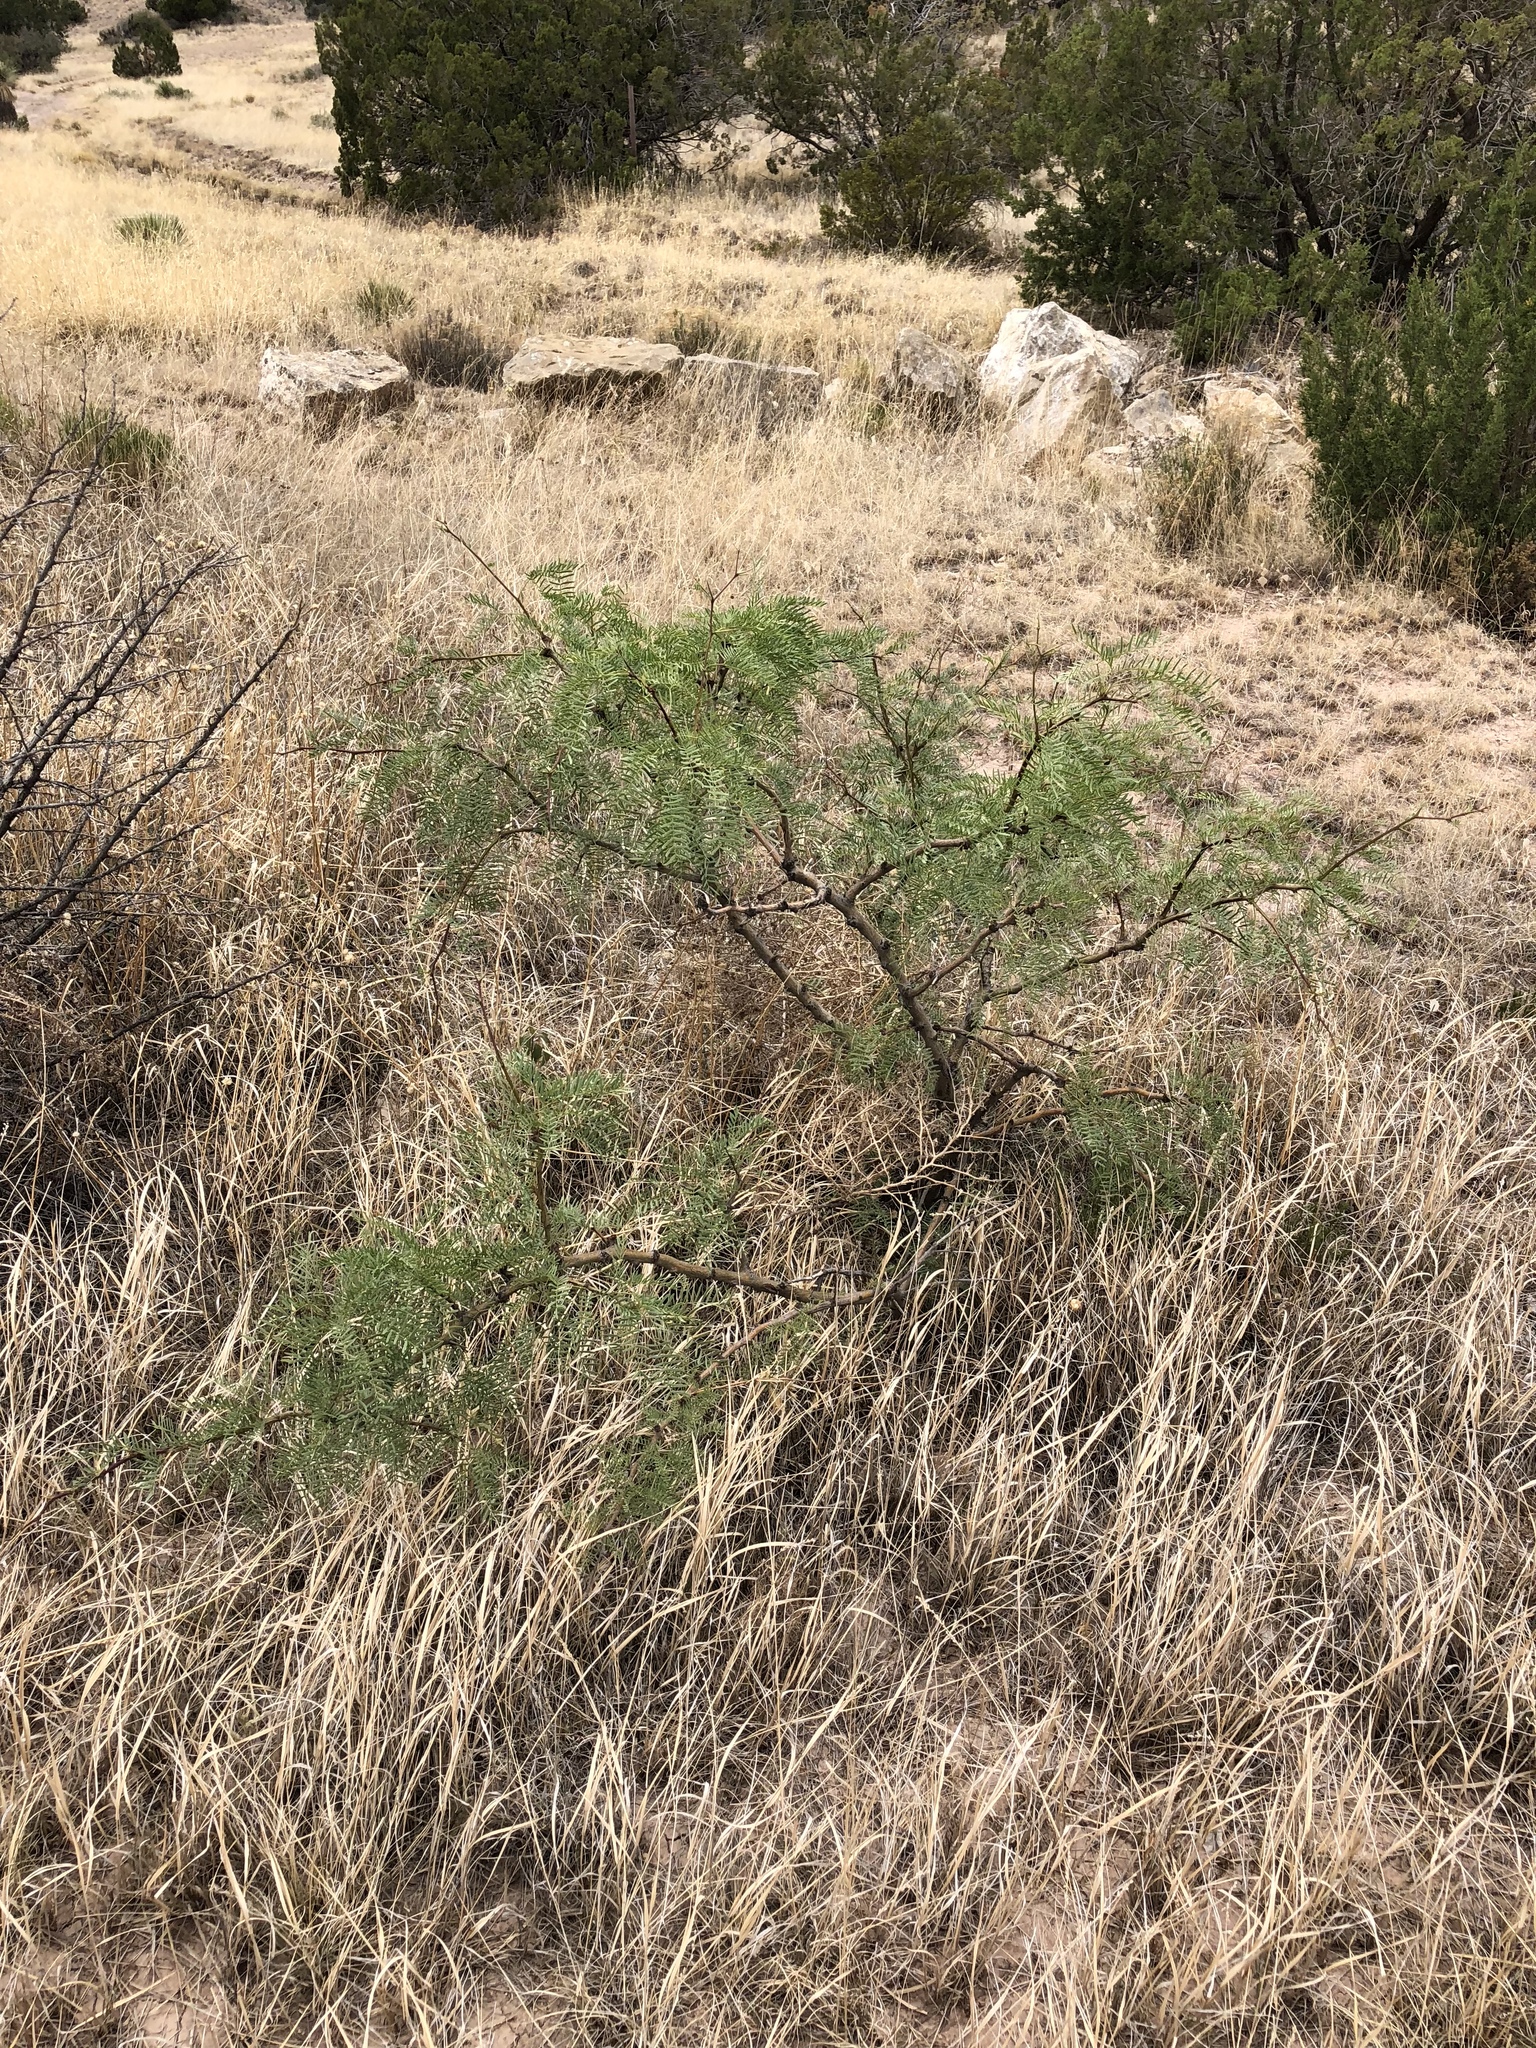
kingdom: Plantae
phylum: Tracheophyta
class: Magnoliopsida
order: Fabales
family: Fabaceae
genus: Prosopis
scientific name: Prosopis glandulosa
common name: Honey mesquite
